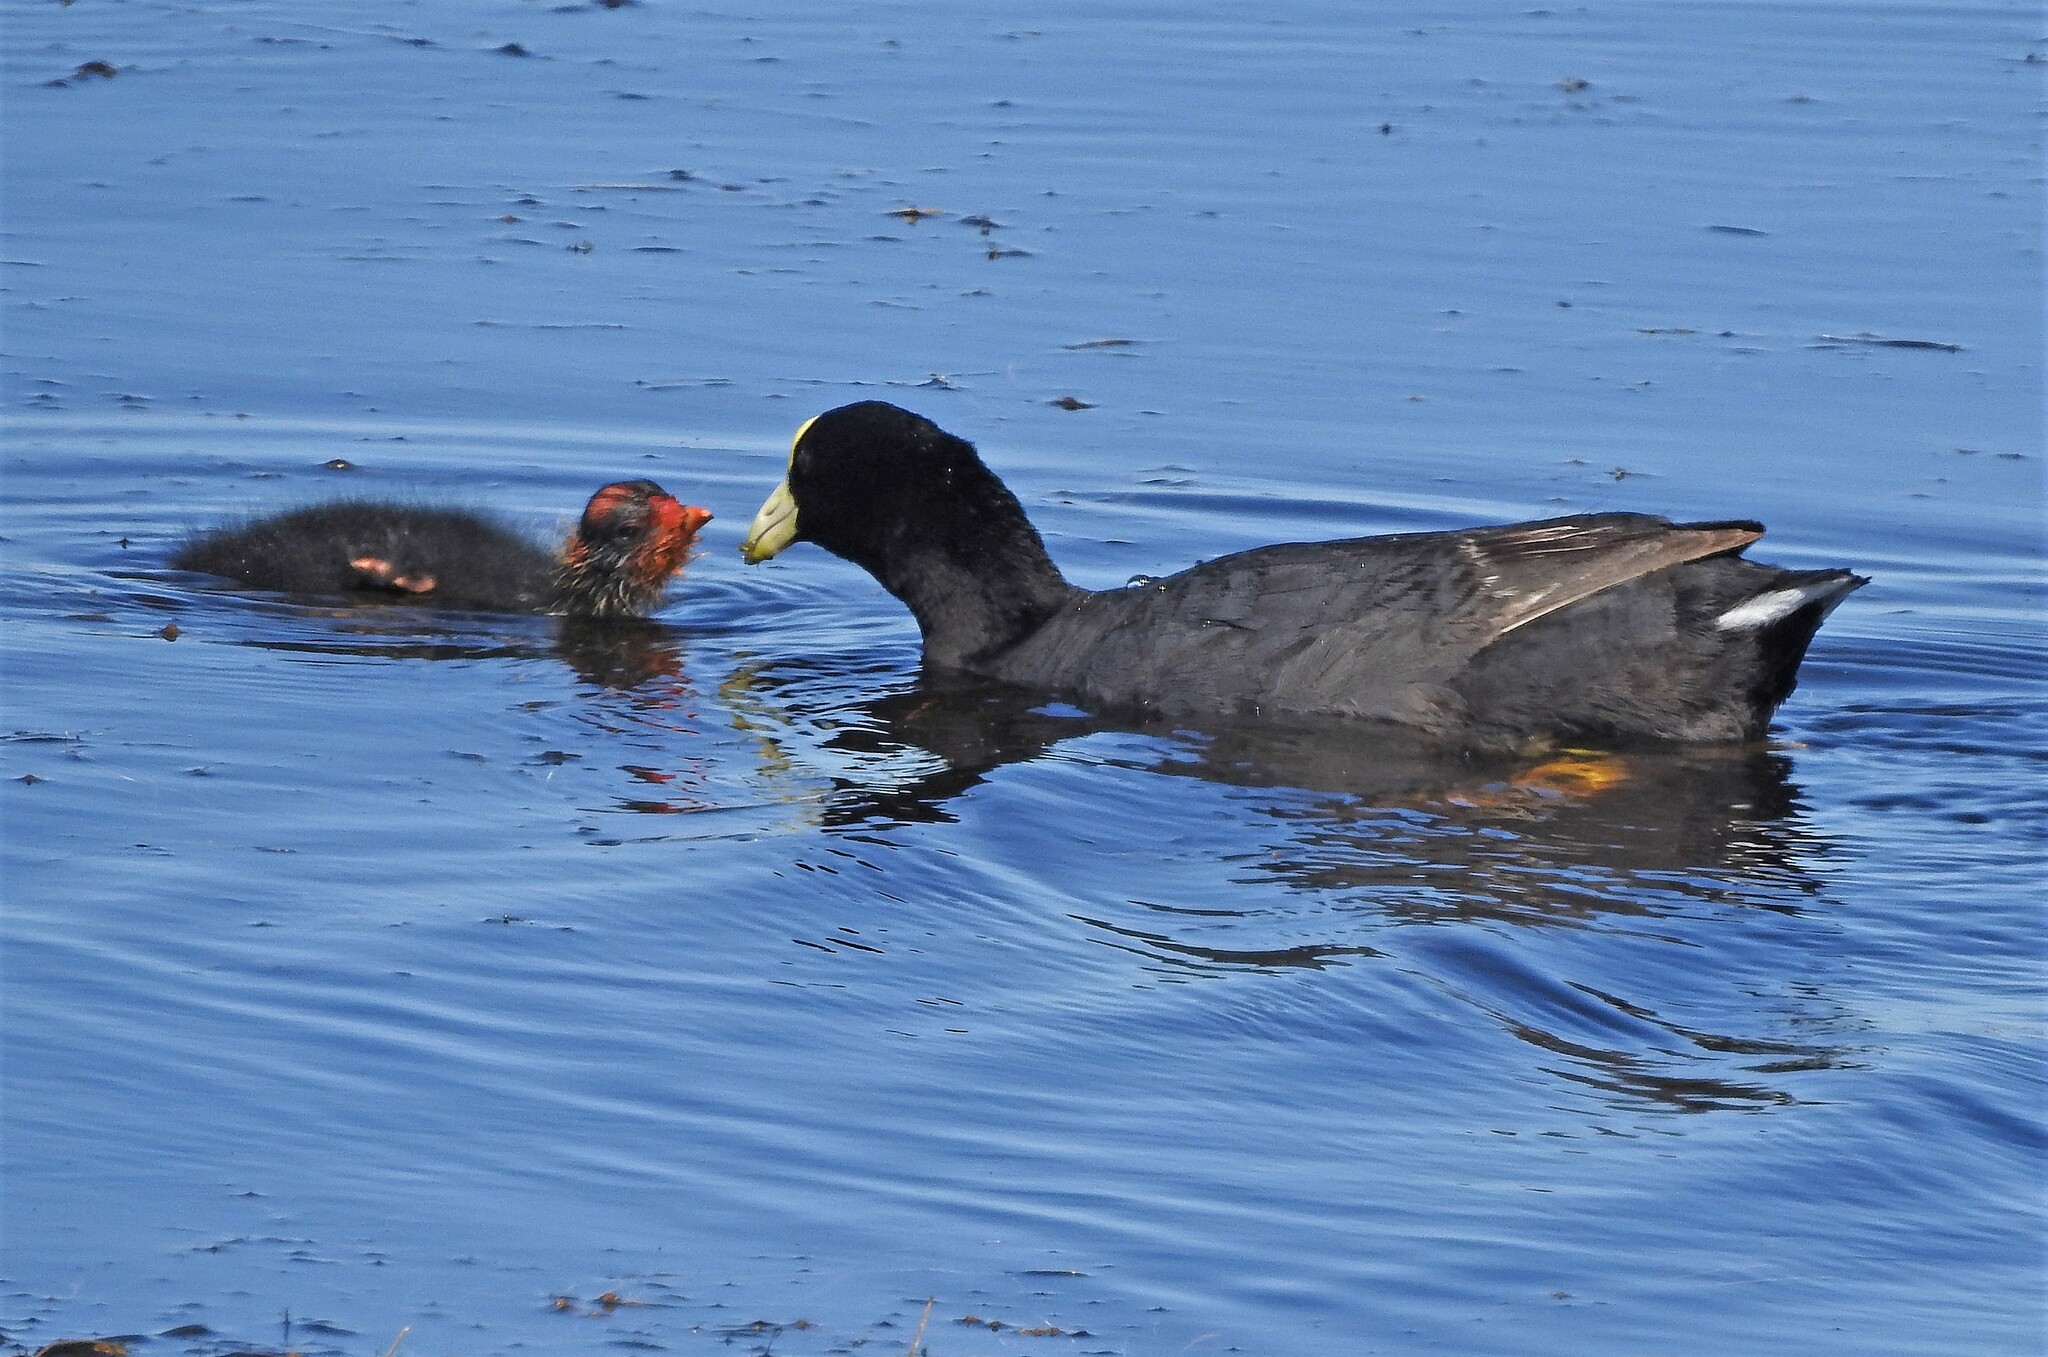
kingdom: Animalia
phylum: Chordata
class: Aves
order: Gruiformes
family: Rallidae
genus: Fulica
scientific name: Fulica leucoptera
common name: White-winged coot
